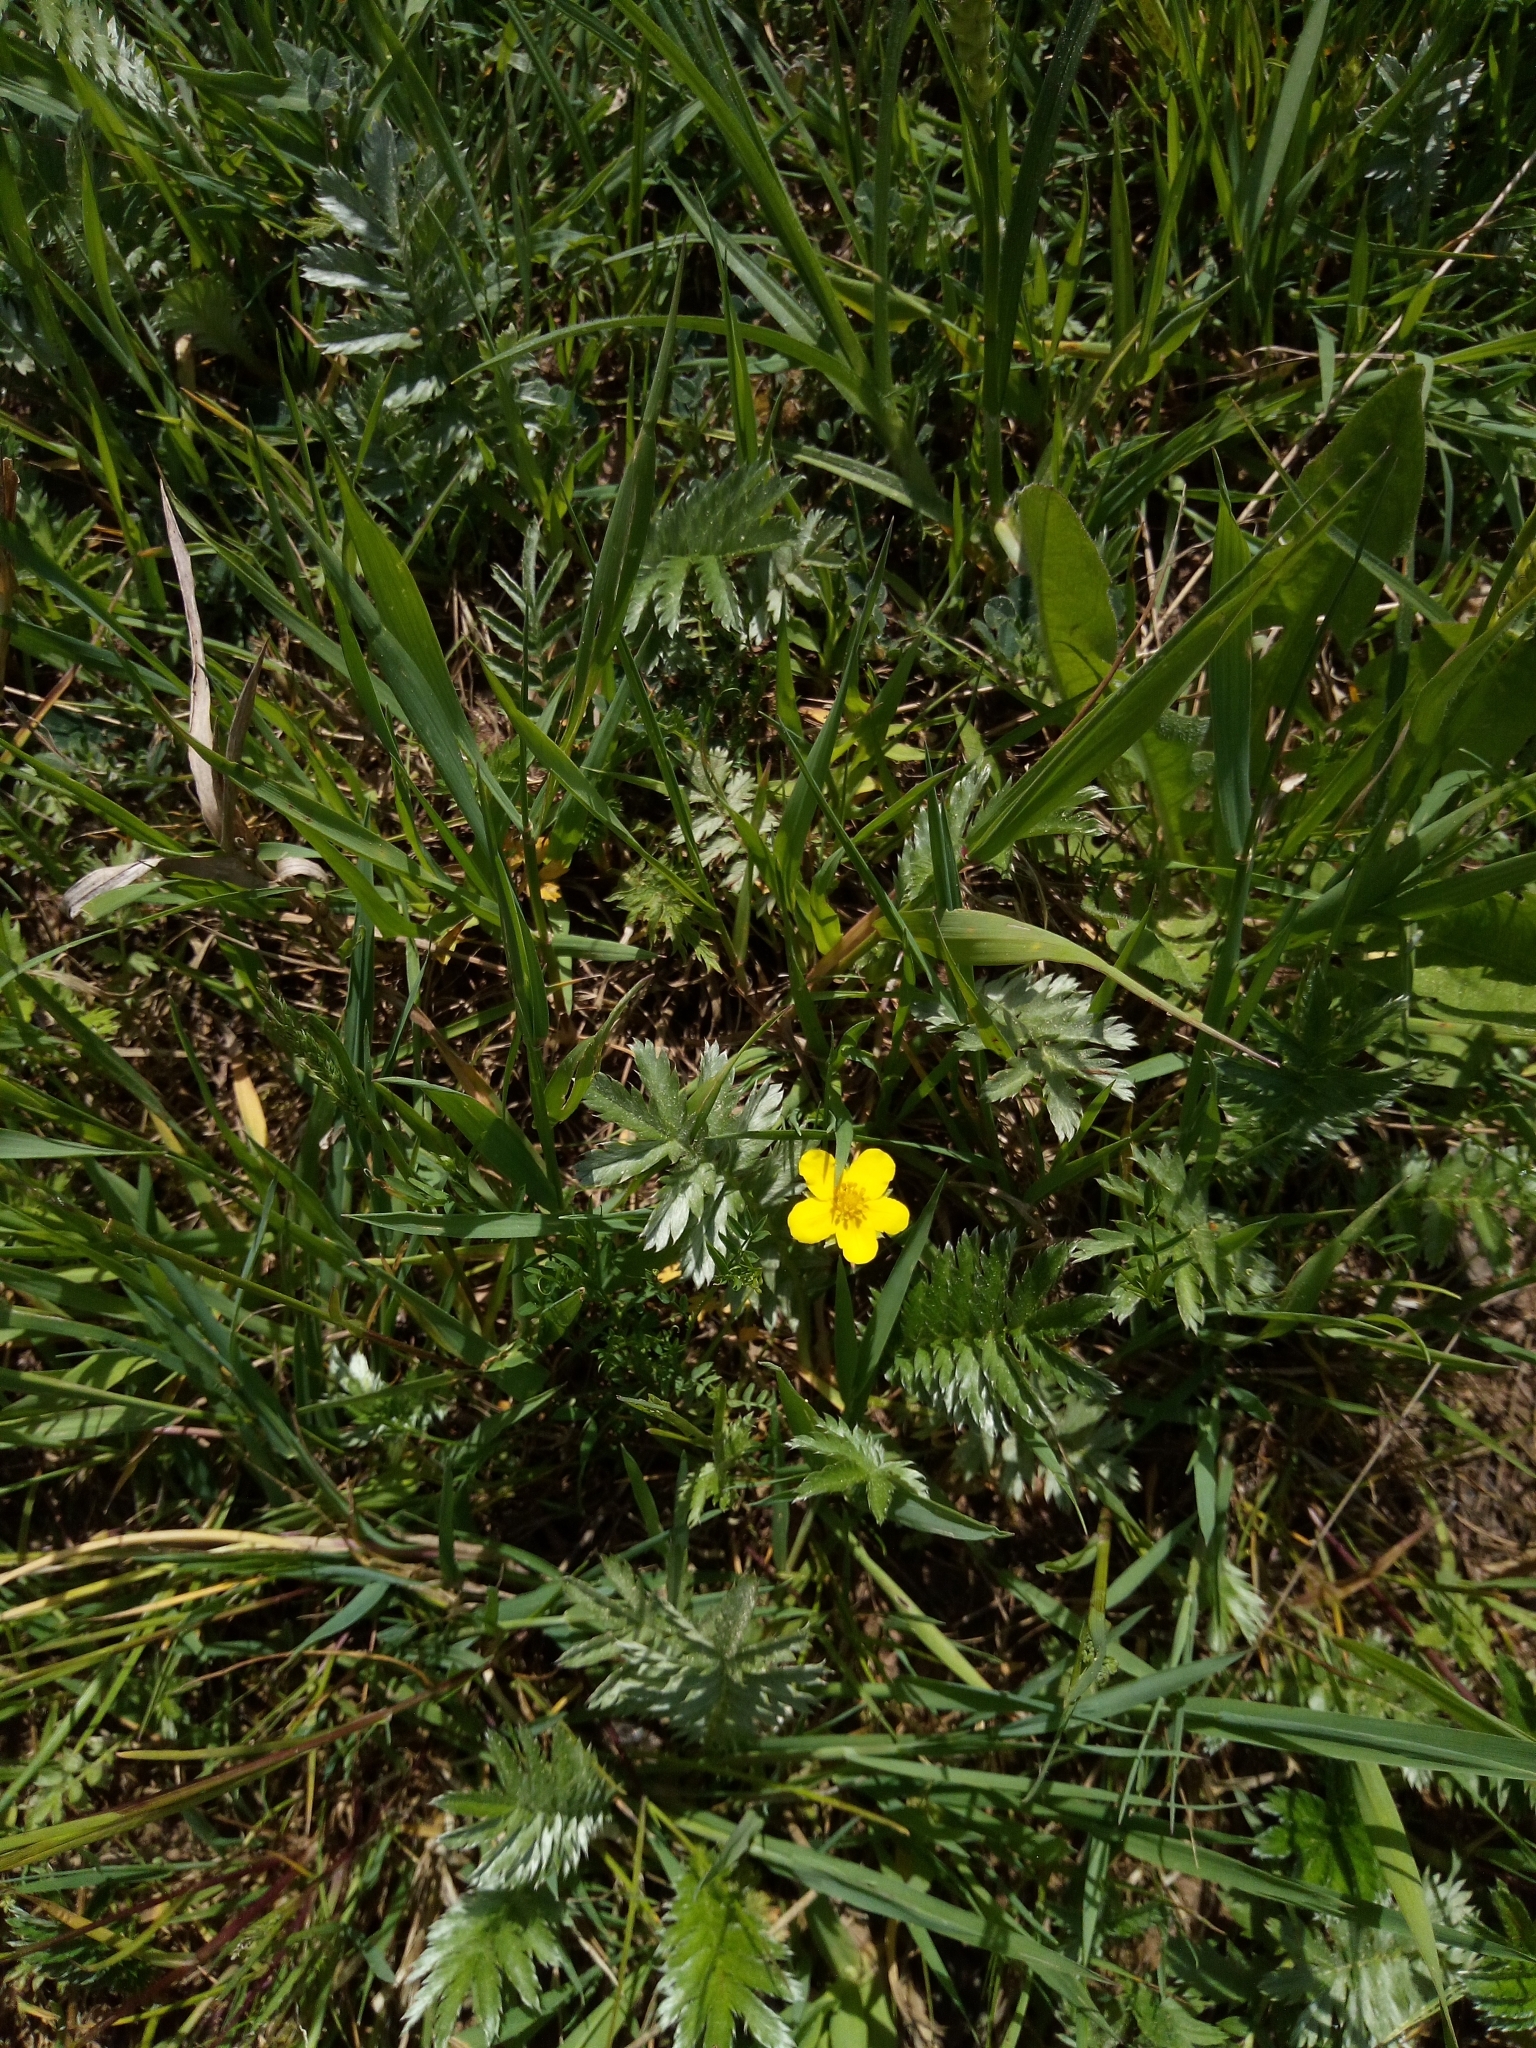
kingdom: Plantae
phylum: Tracheophyta
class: Magnoliopsida
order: Rosales
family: Rosaceae
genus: Argentina
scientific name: Argentina anserina
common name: Common silverweed
